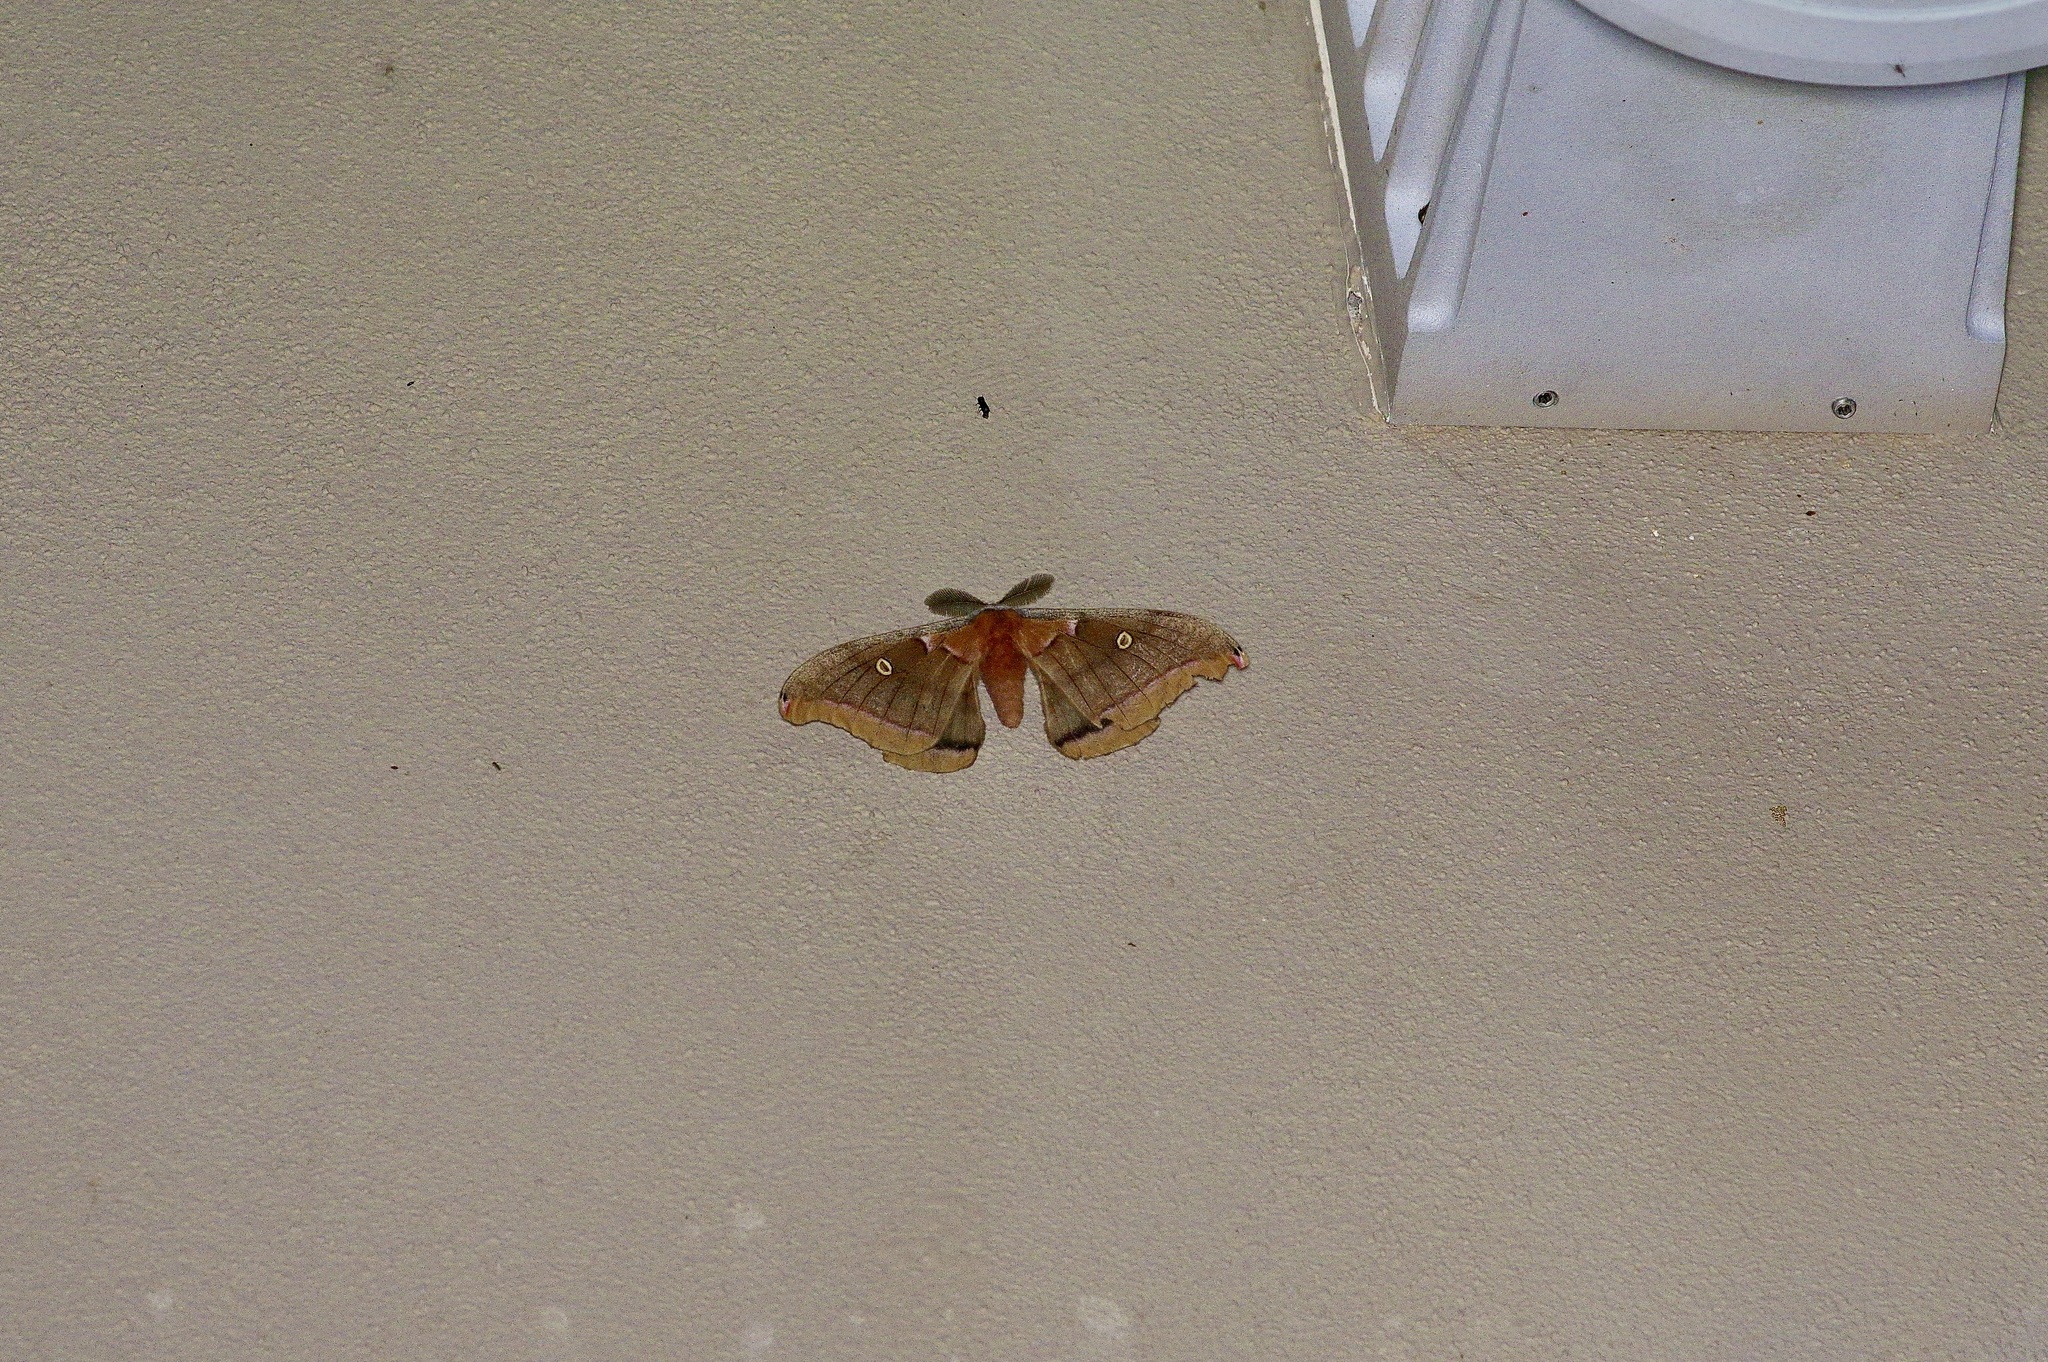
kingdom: Animalia
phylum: Arthropoda
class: Insecta
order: Lepidoptera
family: Saturniidae
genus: Antheraea
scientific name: Antheraea polyphemus
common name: Polyphemus moth
